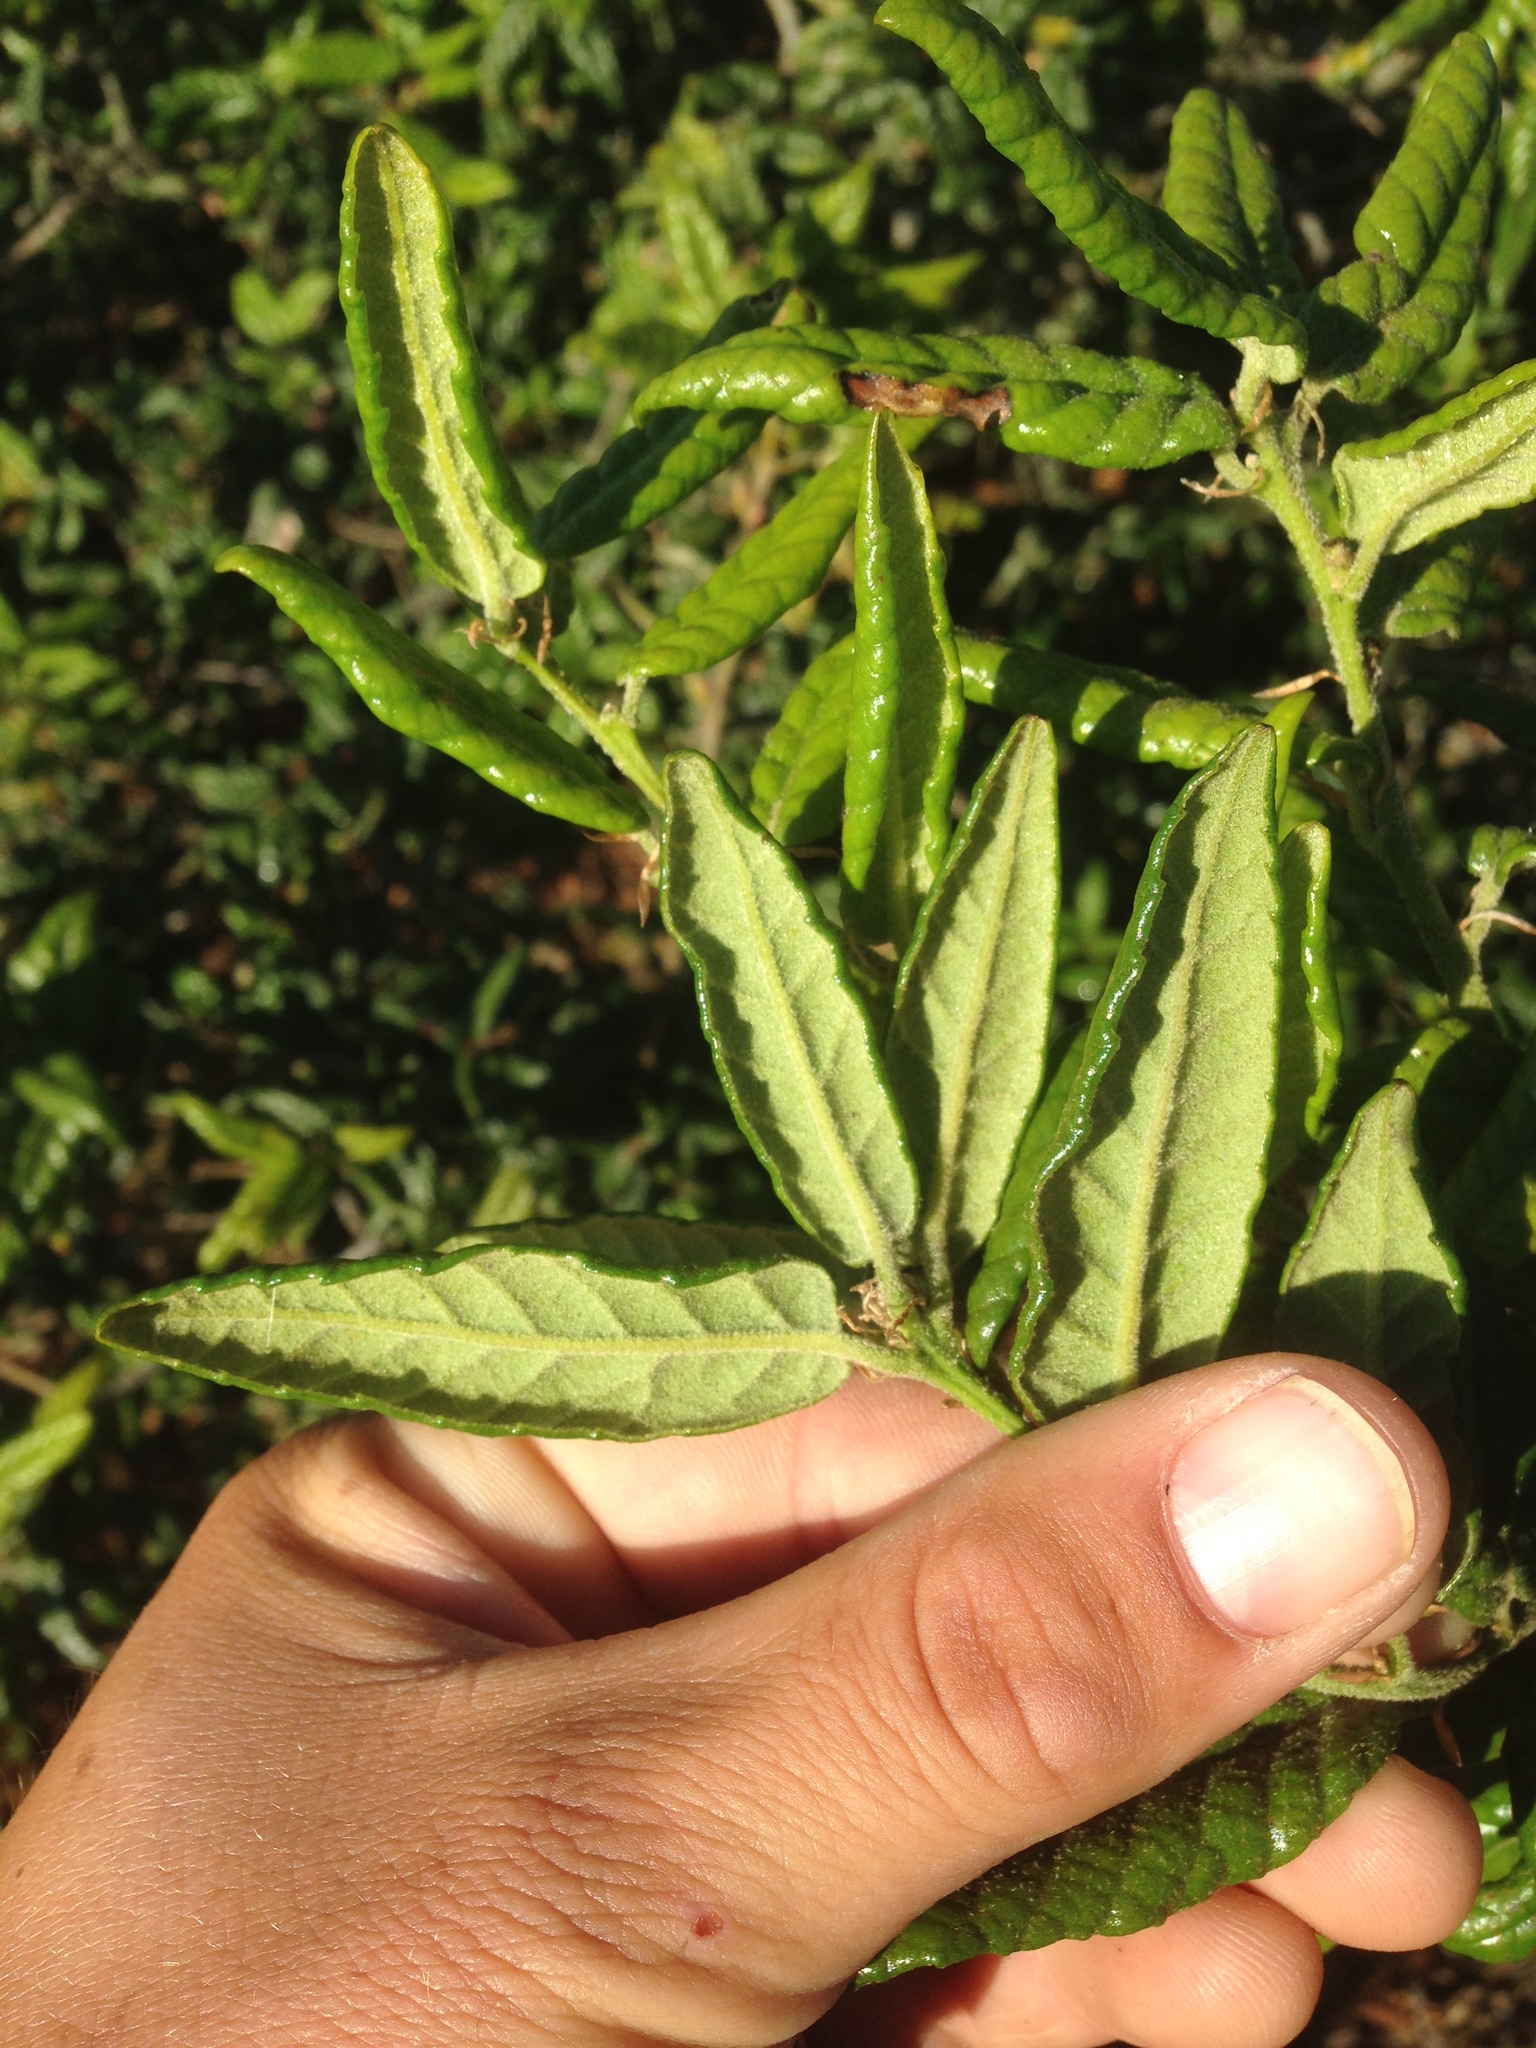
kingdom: Plantae
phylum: Tracheophyta
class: Magnoliopsida
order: Fagales
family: Fagaceae
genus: Quercus
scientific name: Quercus tomentella
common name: Island oak
